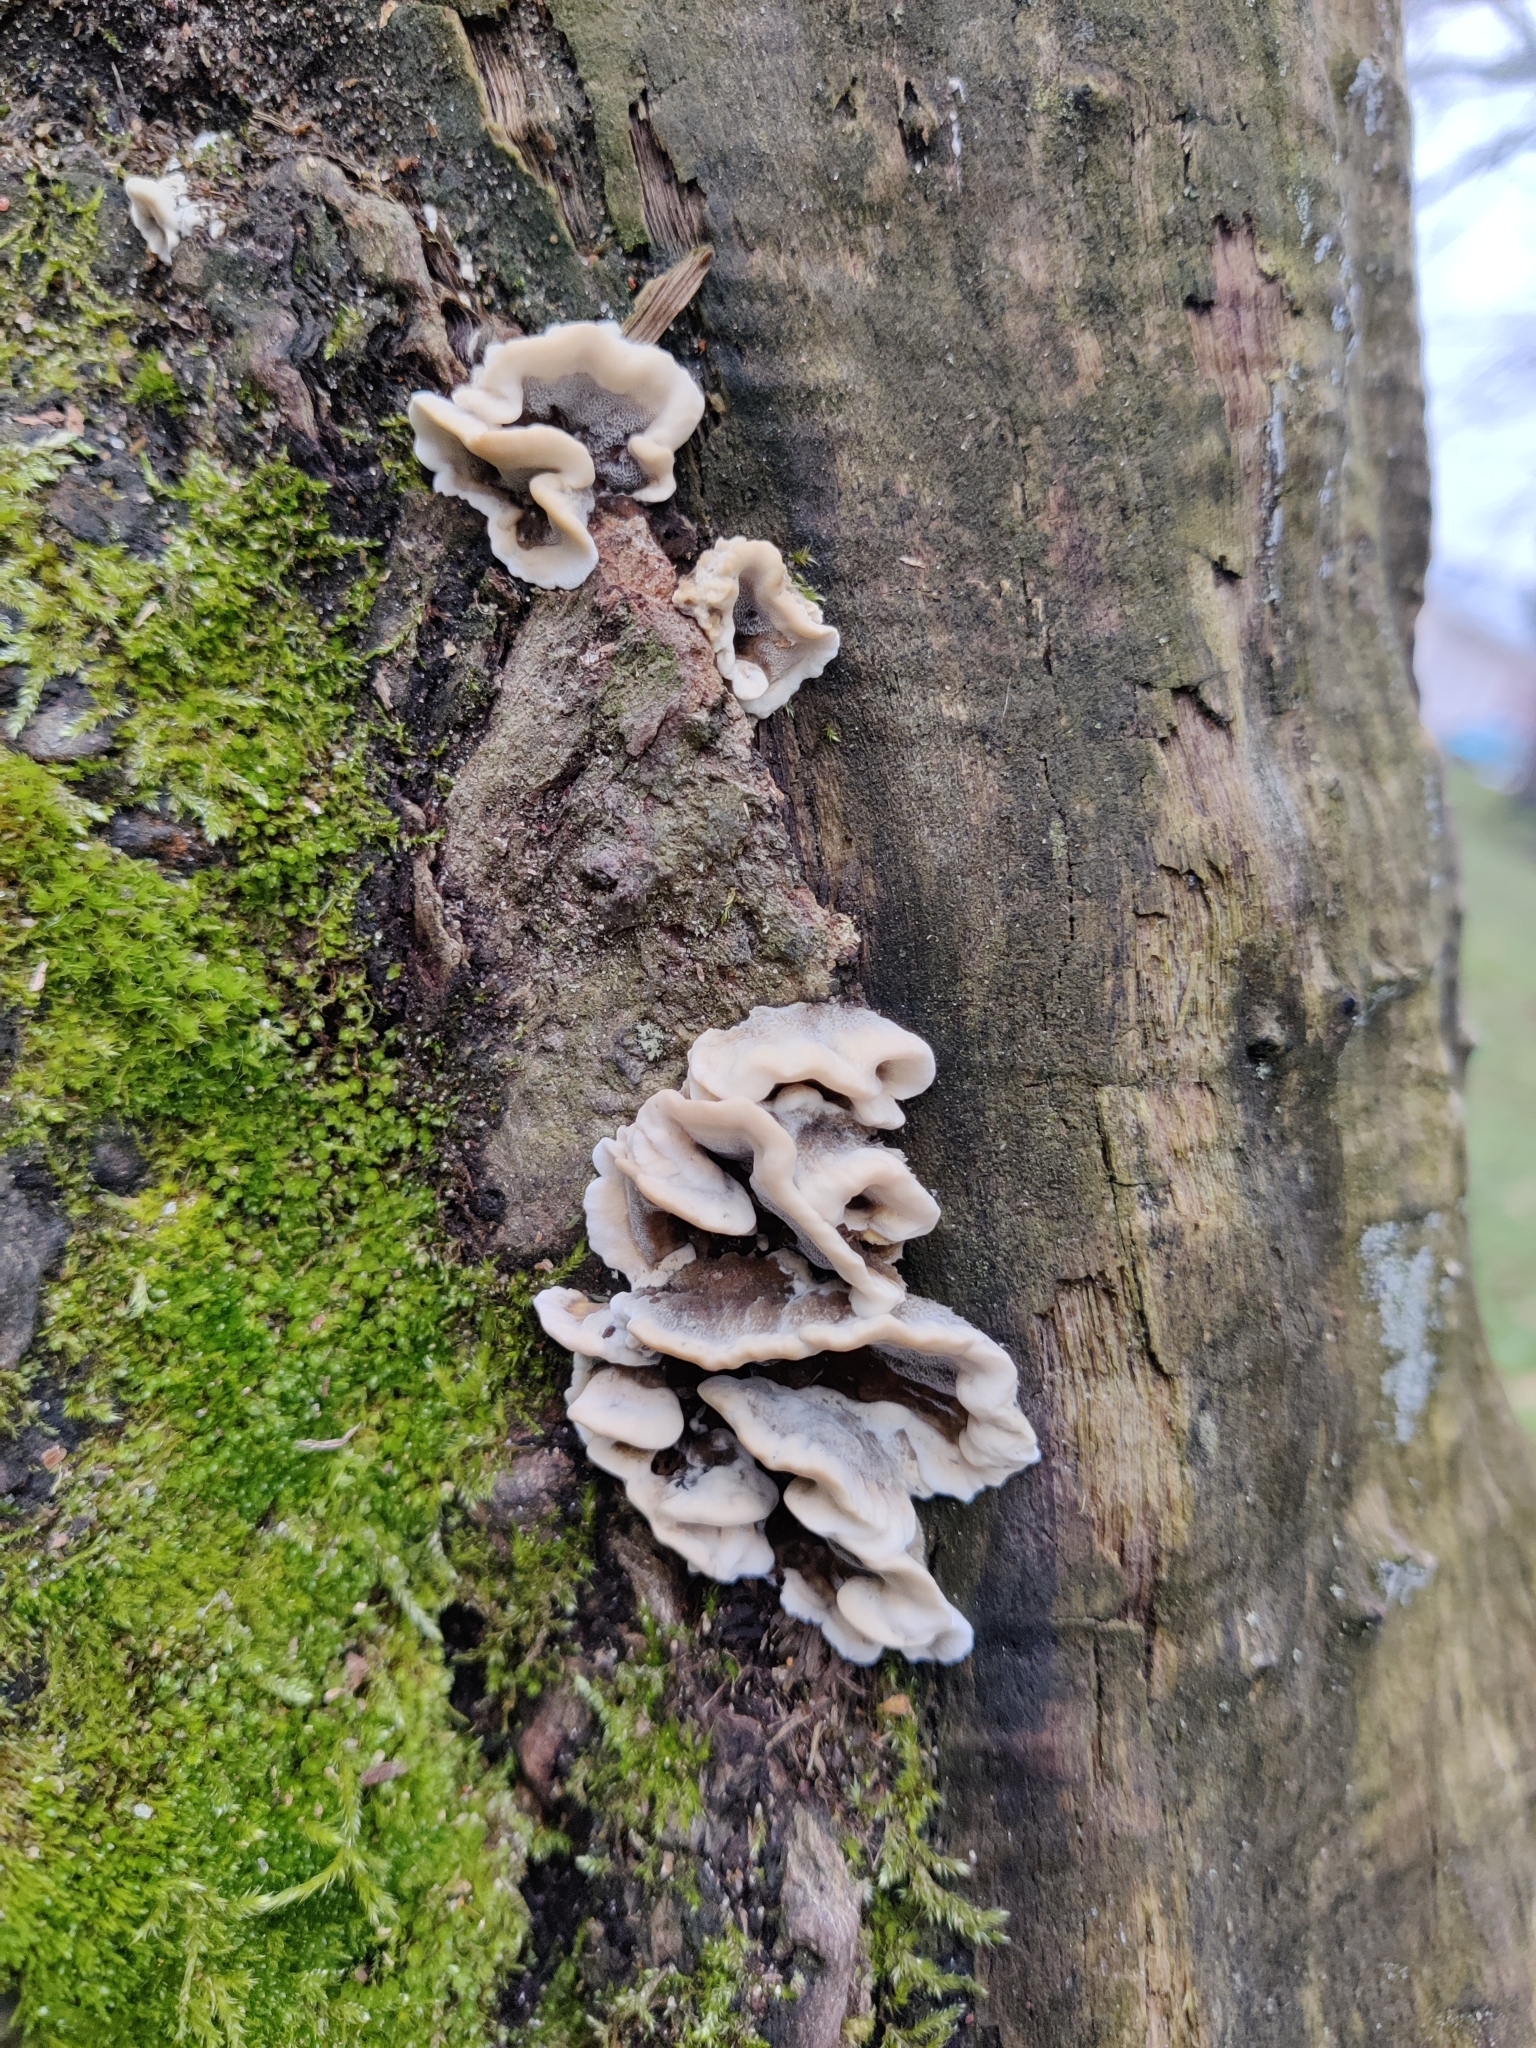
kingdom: Fungi
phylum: Basidiomycota
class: Agaricomycetes
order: Polyporales
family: Phanerochaetaceae
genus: Bjerkandera
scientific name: Bjerkandera adusta
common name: Smoky bracket
